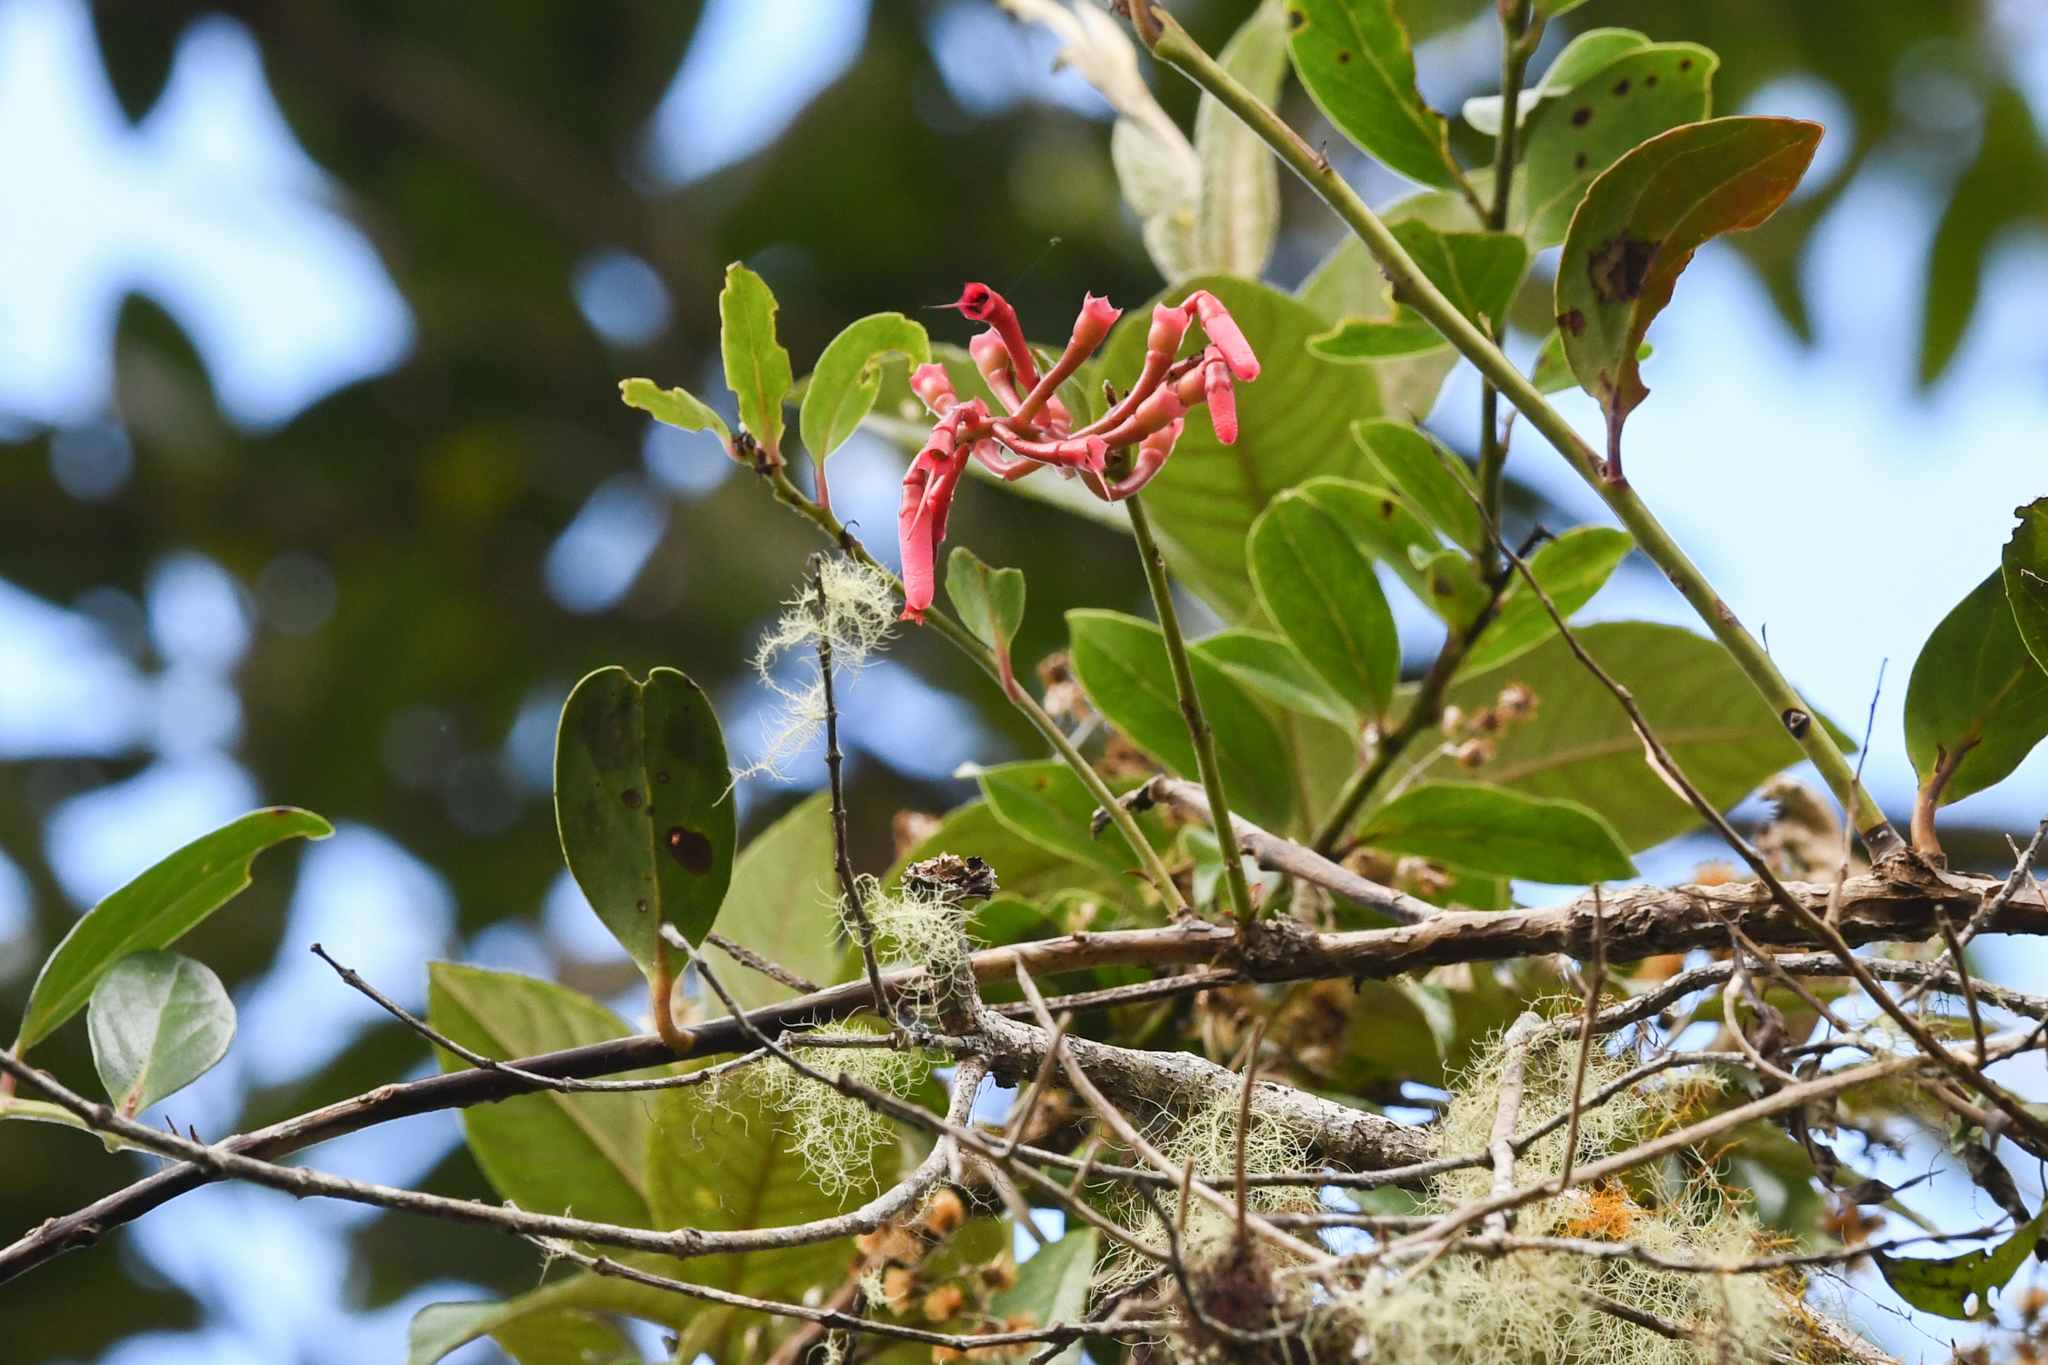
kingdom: Plantae
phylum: Tracheophyta
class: Magnoliopsida
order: Ericales
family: Ericaceae
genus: Macleania
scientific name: Macleania rupestris
